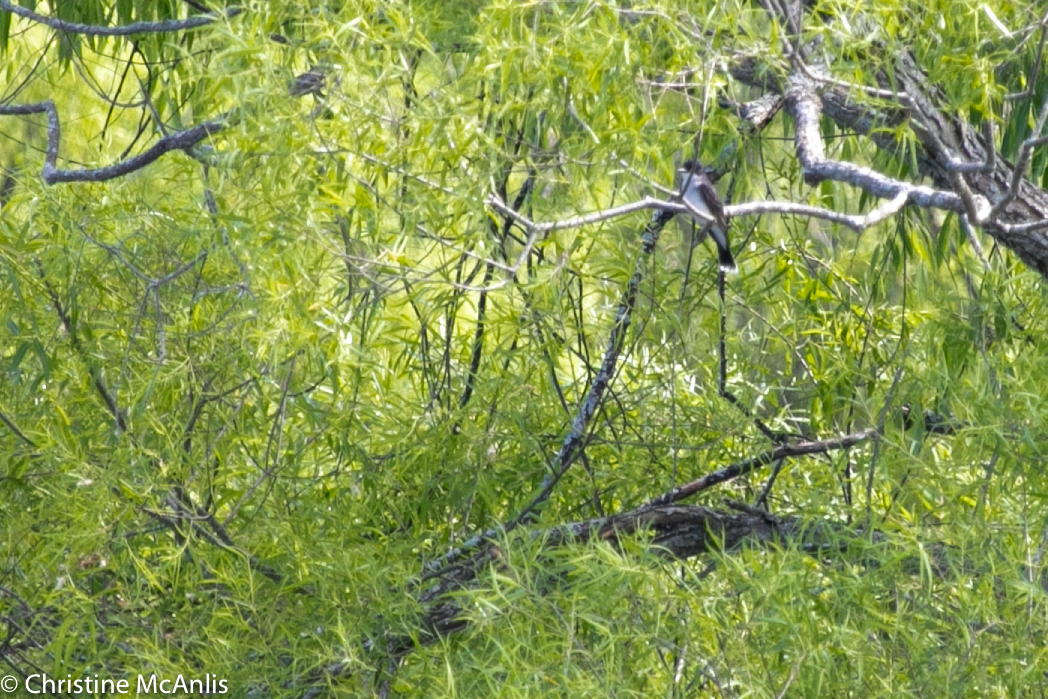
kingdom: Animalia
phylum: Chordata
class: Aves
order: Passeriformes
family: Tyrannidae
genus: Tyrannus
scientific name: Tyrannus tyrannus
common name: Eastern kingbird
